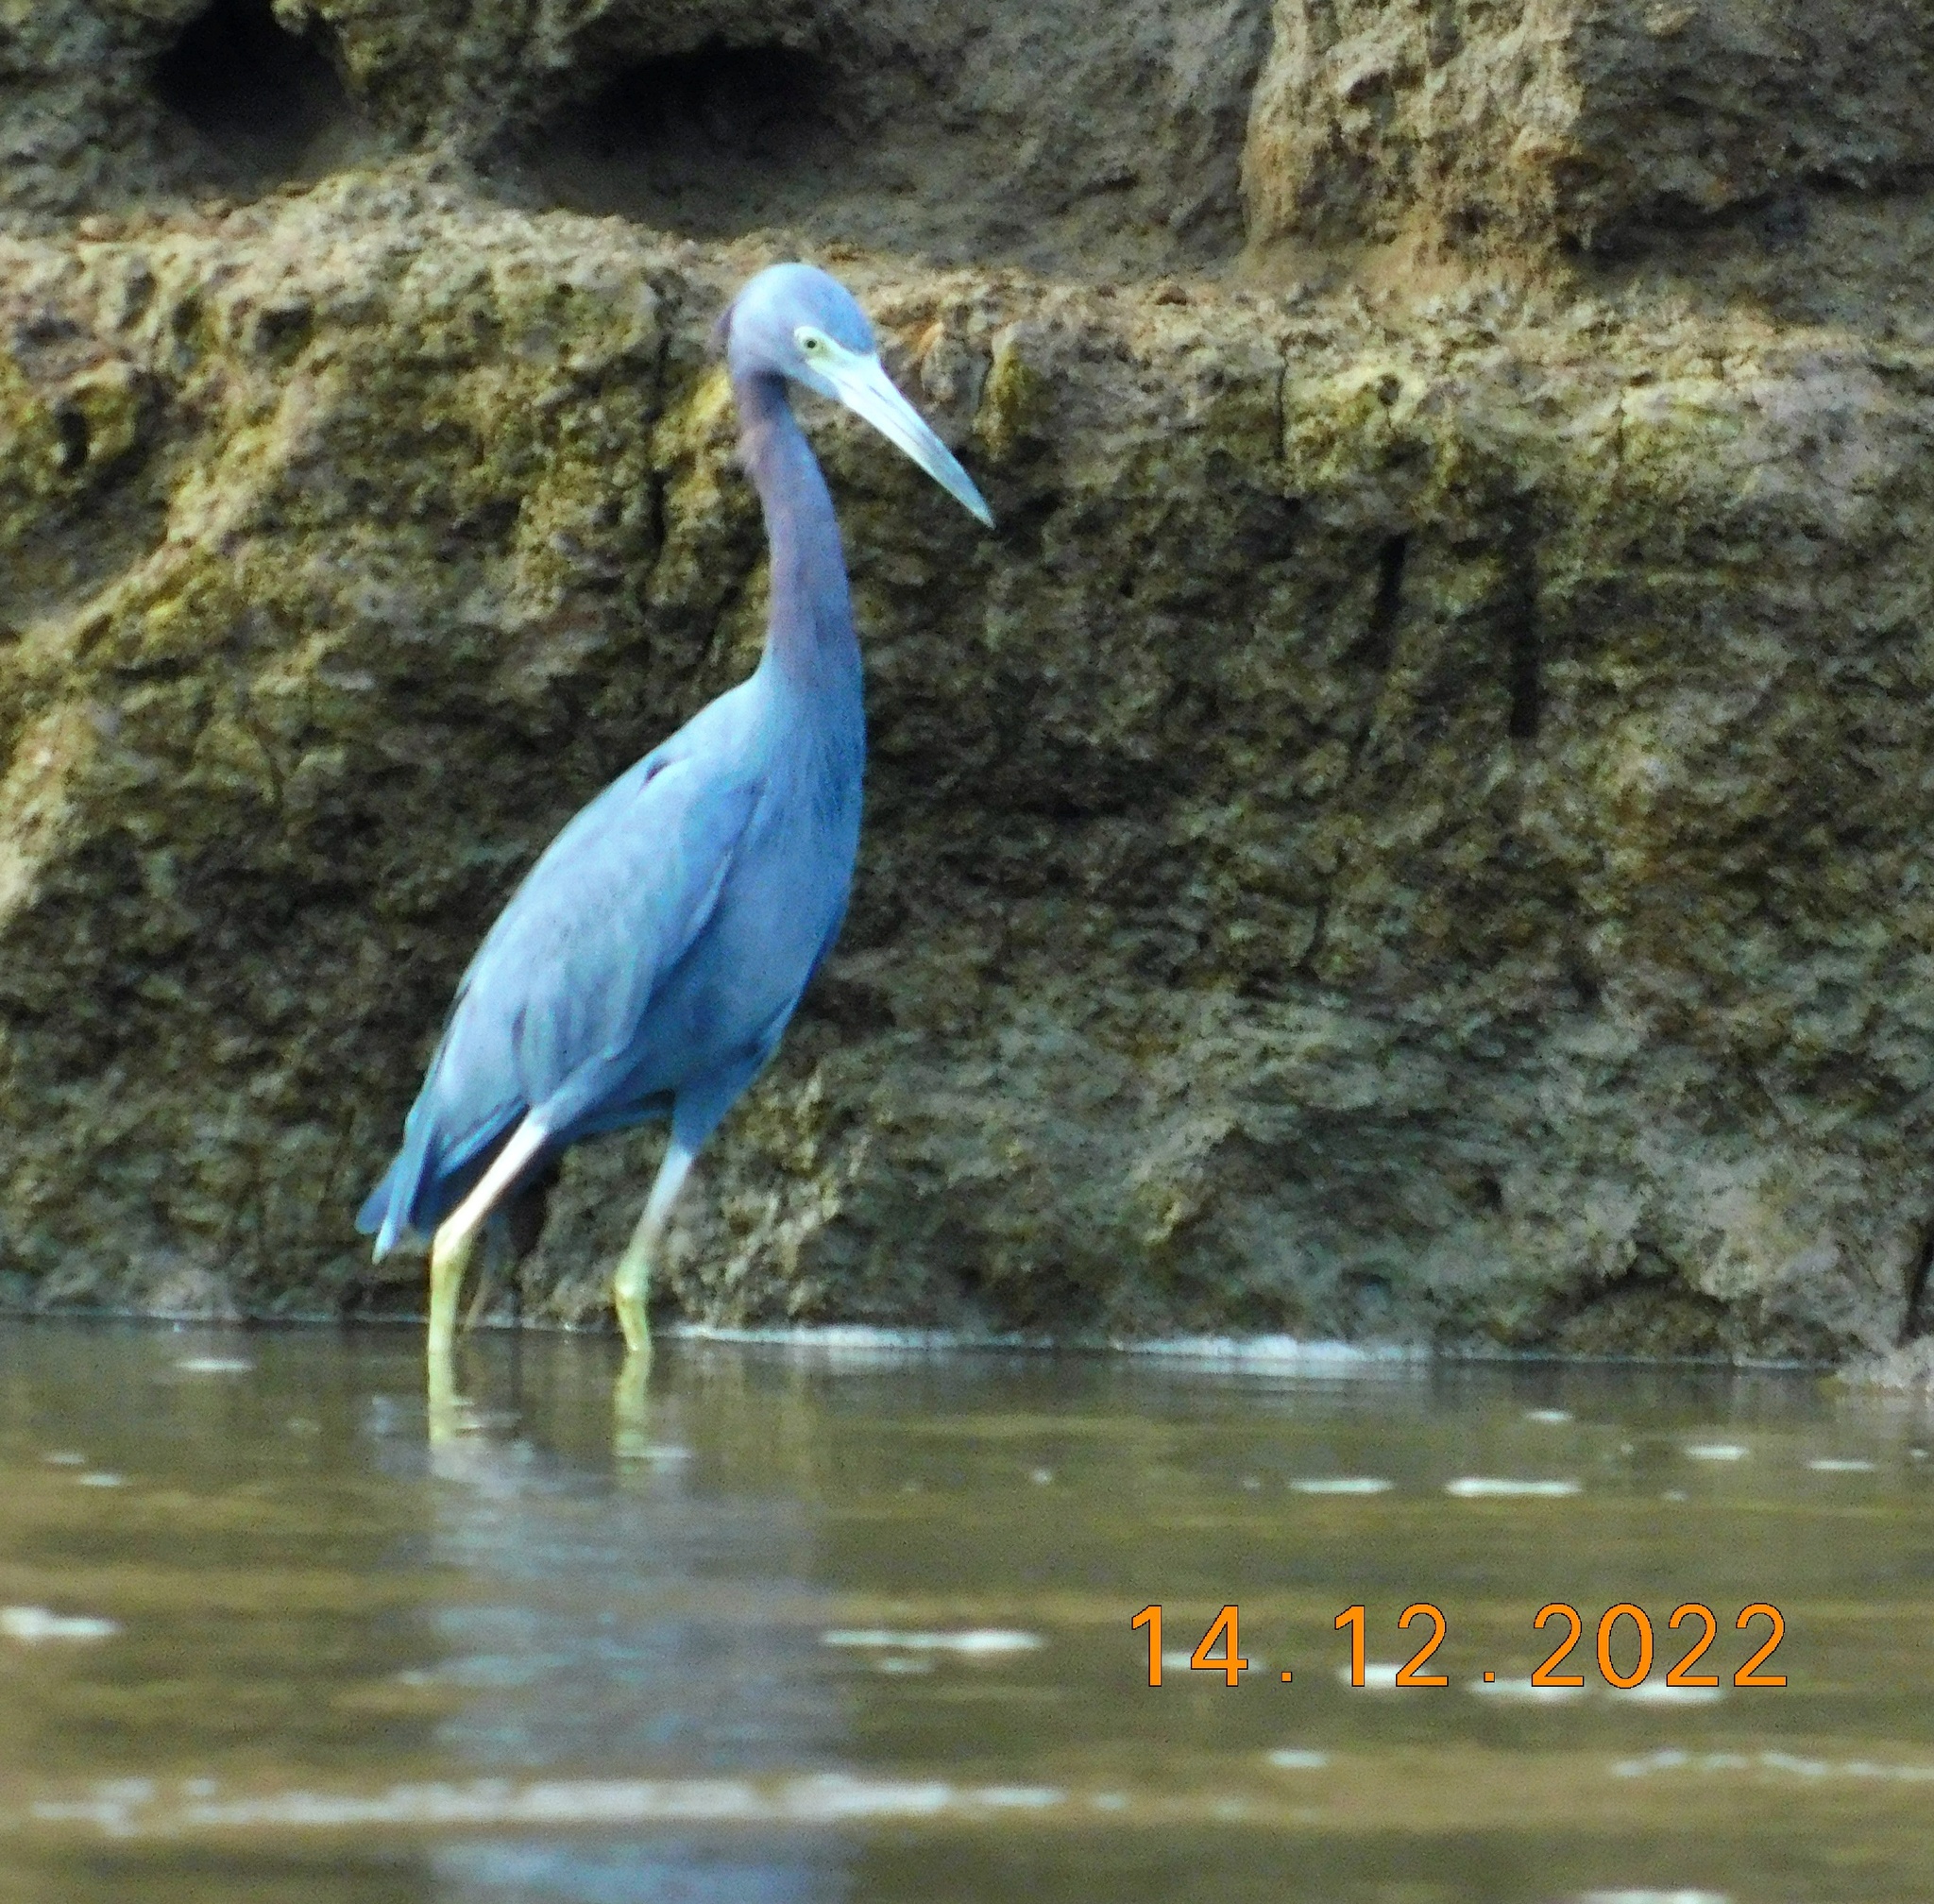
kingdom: Animalia
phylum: Chordata
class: Aves
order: Pelecaniformes
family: Ardeidae
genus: Egretta
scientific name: Egretta caerulea
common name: Little blue heron
